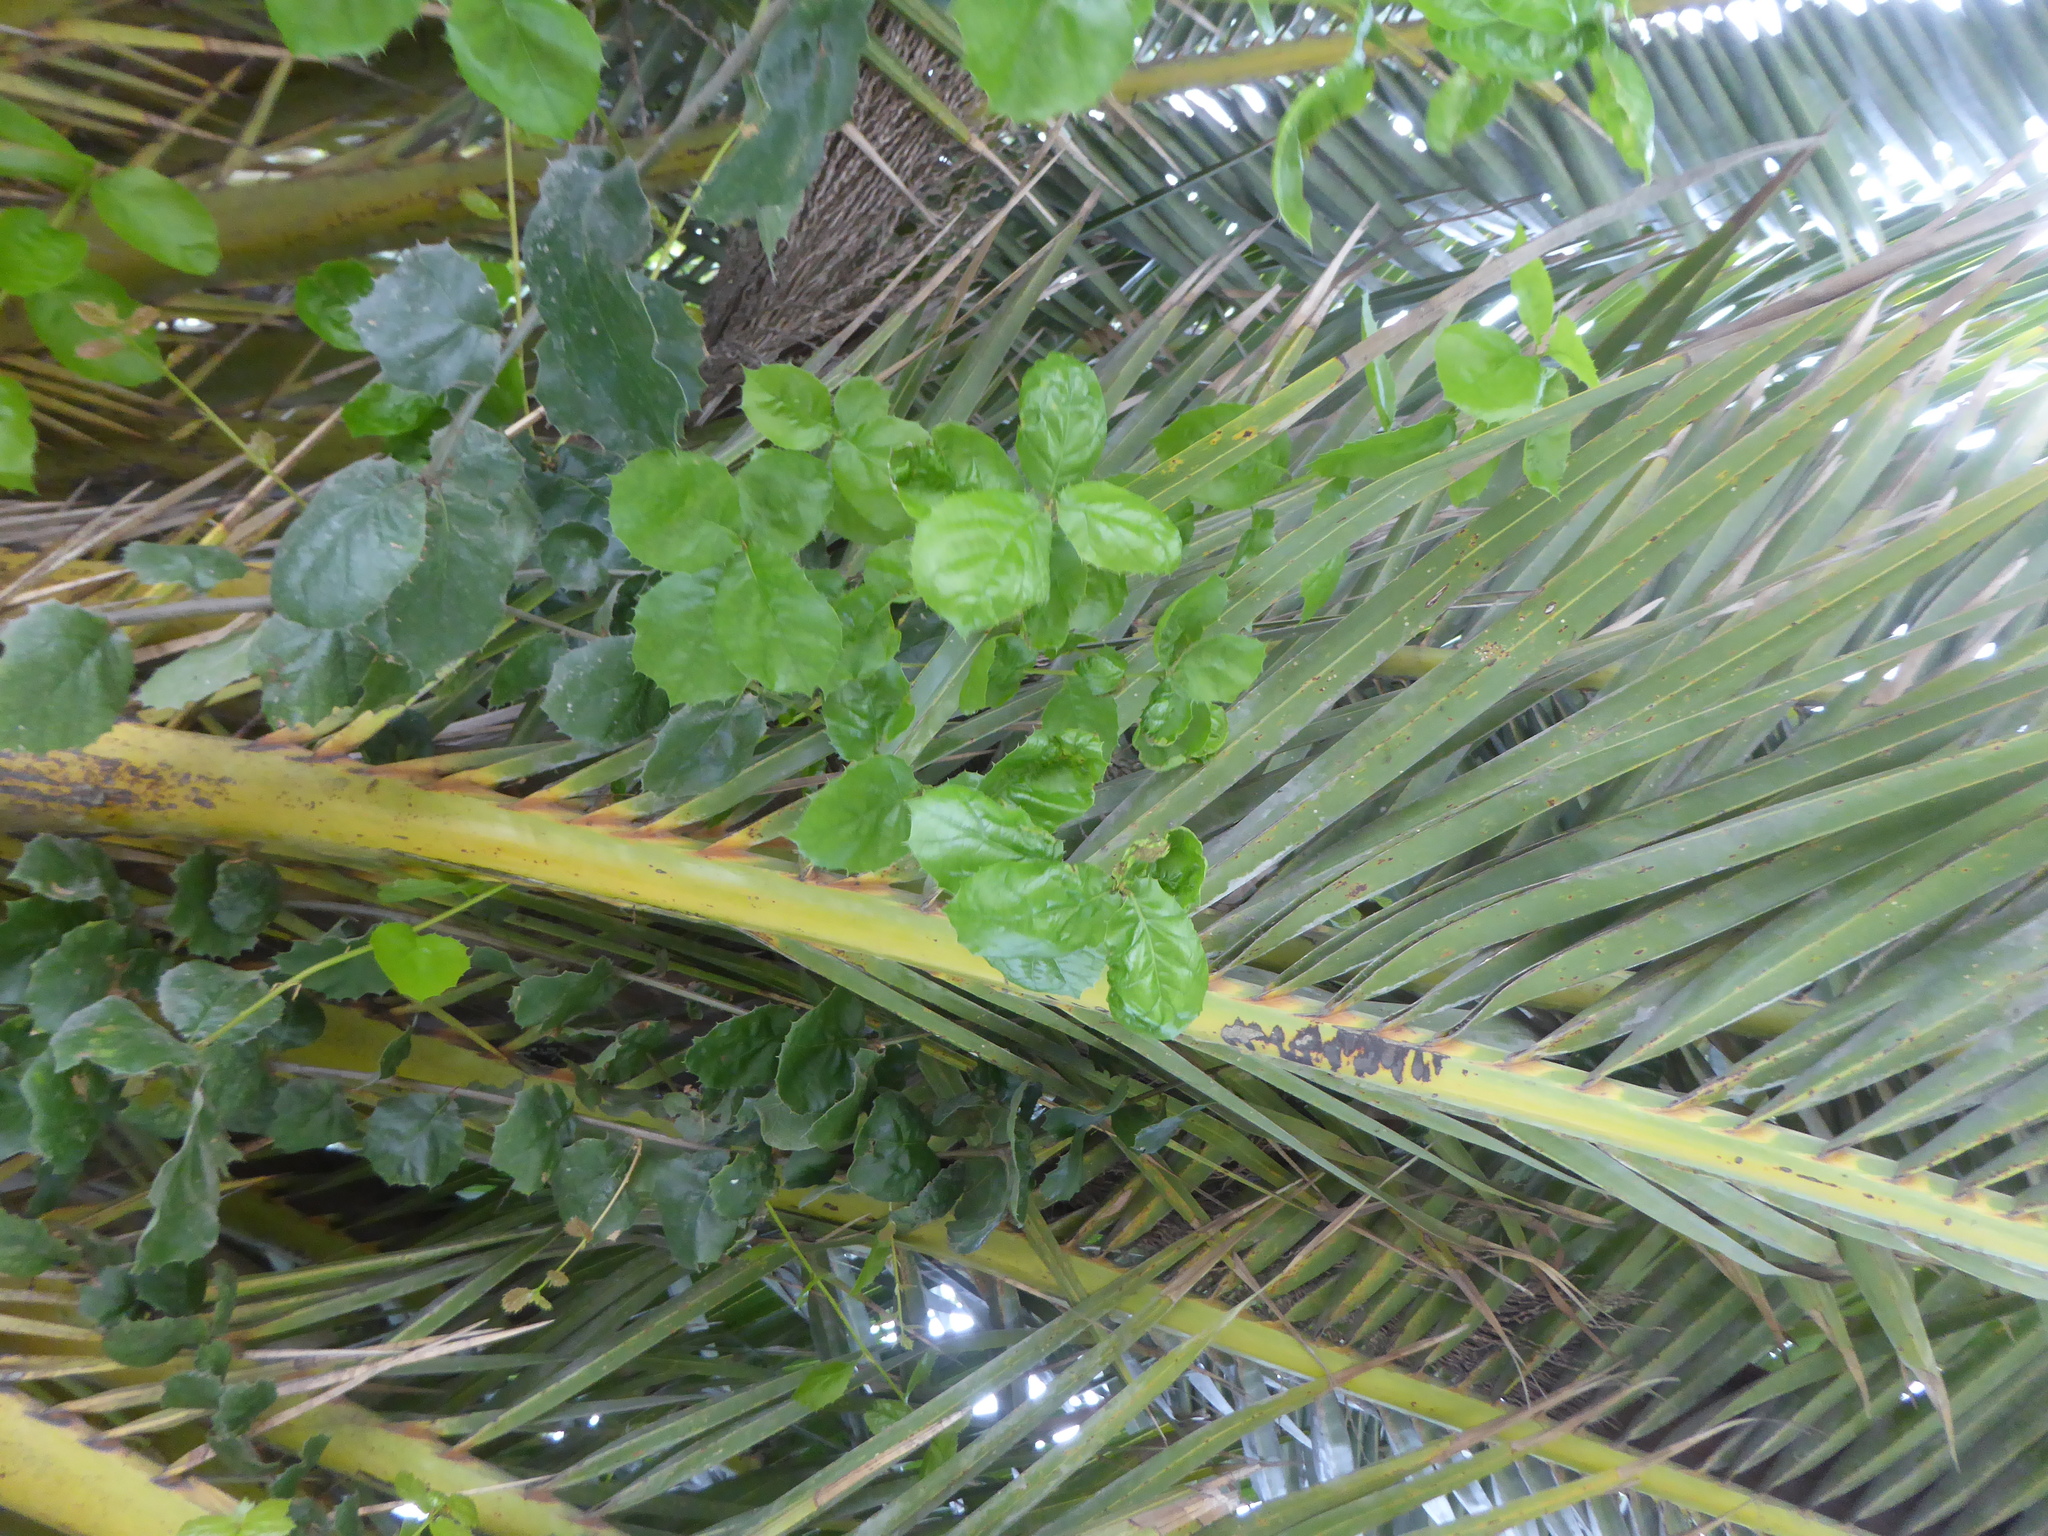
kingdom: Plantae
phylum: Tracheophyta
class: Magnoliopsida
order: Fagales
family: Fagaceae
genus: Quercus
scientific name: Quercus agrifolia
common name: California live oak
